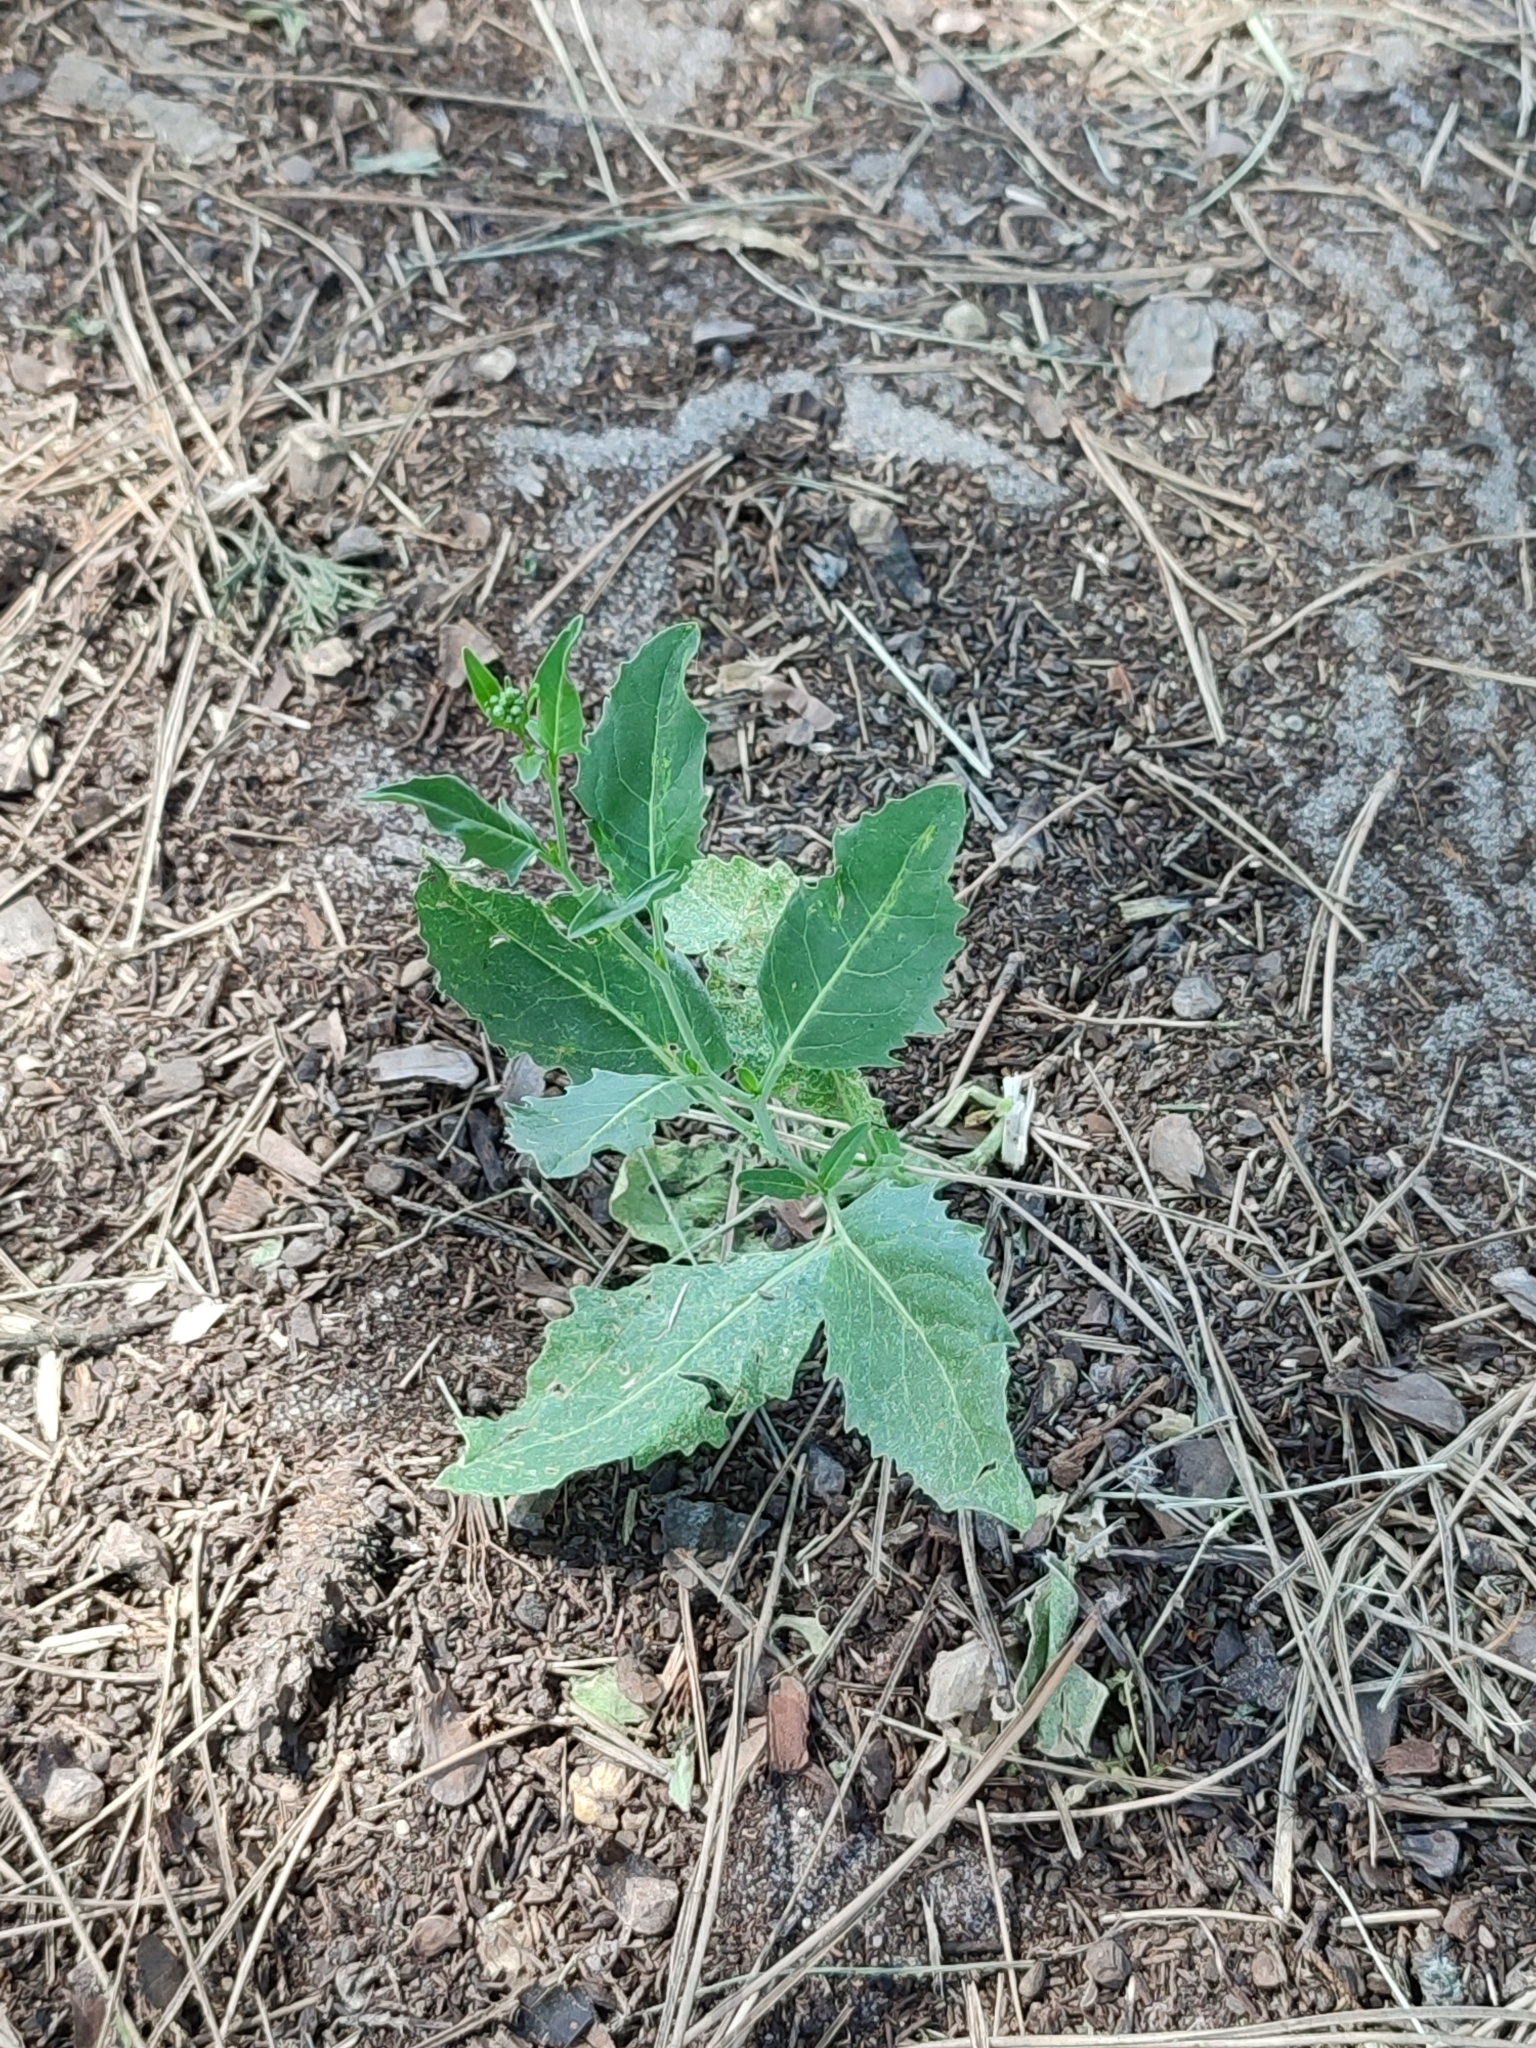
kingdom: Plantae
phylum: Tracheophyta
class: Magnoliopsida
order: Brassicales
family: Brassicaceae
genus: Sisymbrium
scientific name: Sisymbrium volgense
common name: Russian mustard
